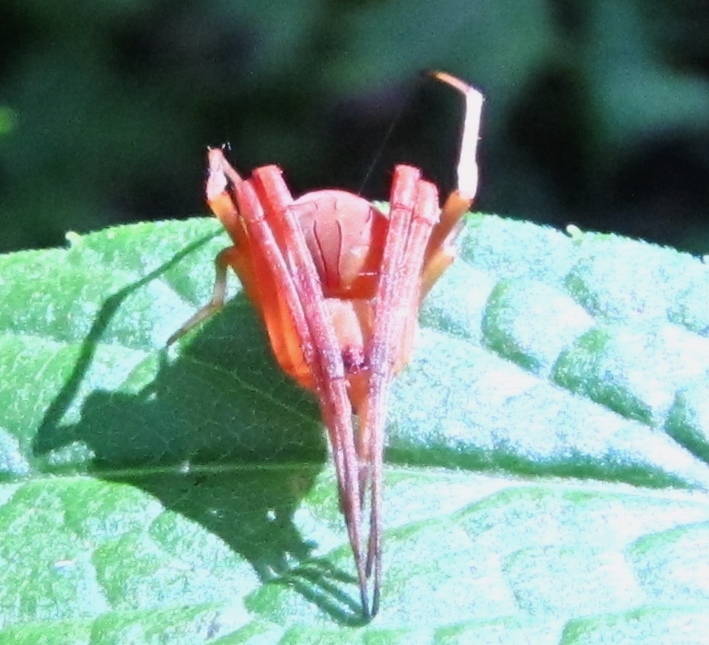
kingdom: Animalia
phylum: Arthropoda
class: Arachnida
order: Araneae
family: Araneidae
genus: Acacesia
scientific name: Acacesia hamata
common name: Orb weavers
